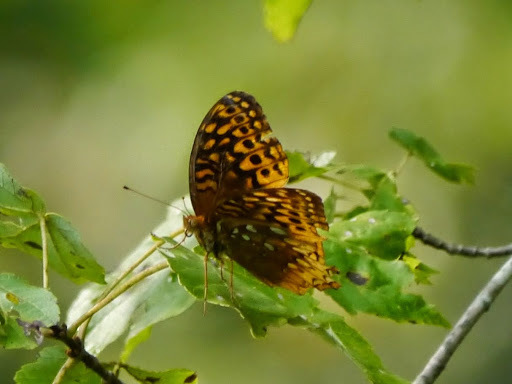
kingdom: Animalia
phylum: Arthropoda
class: Insecta
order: Lepidoptera
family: Nymphalidae
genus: Speyeria
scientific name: Speyeria cybele
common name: Great spangled fritillary
